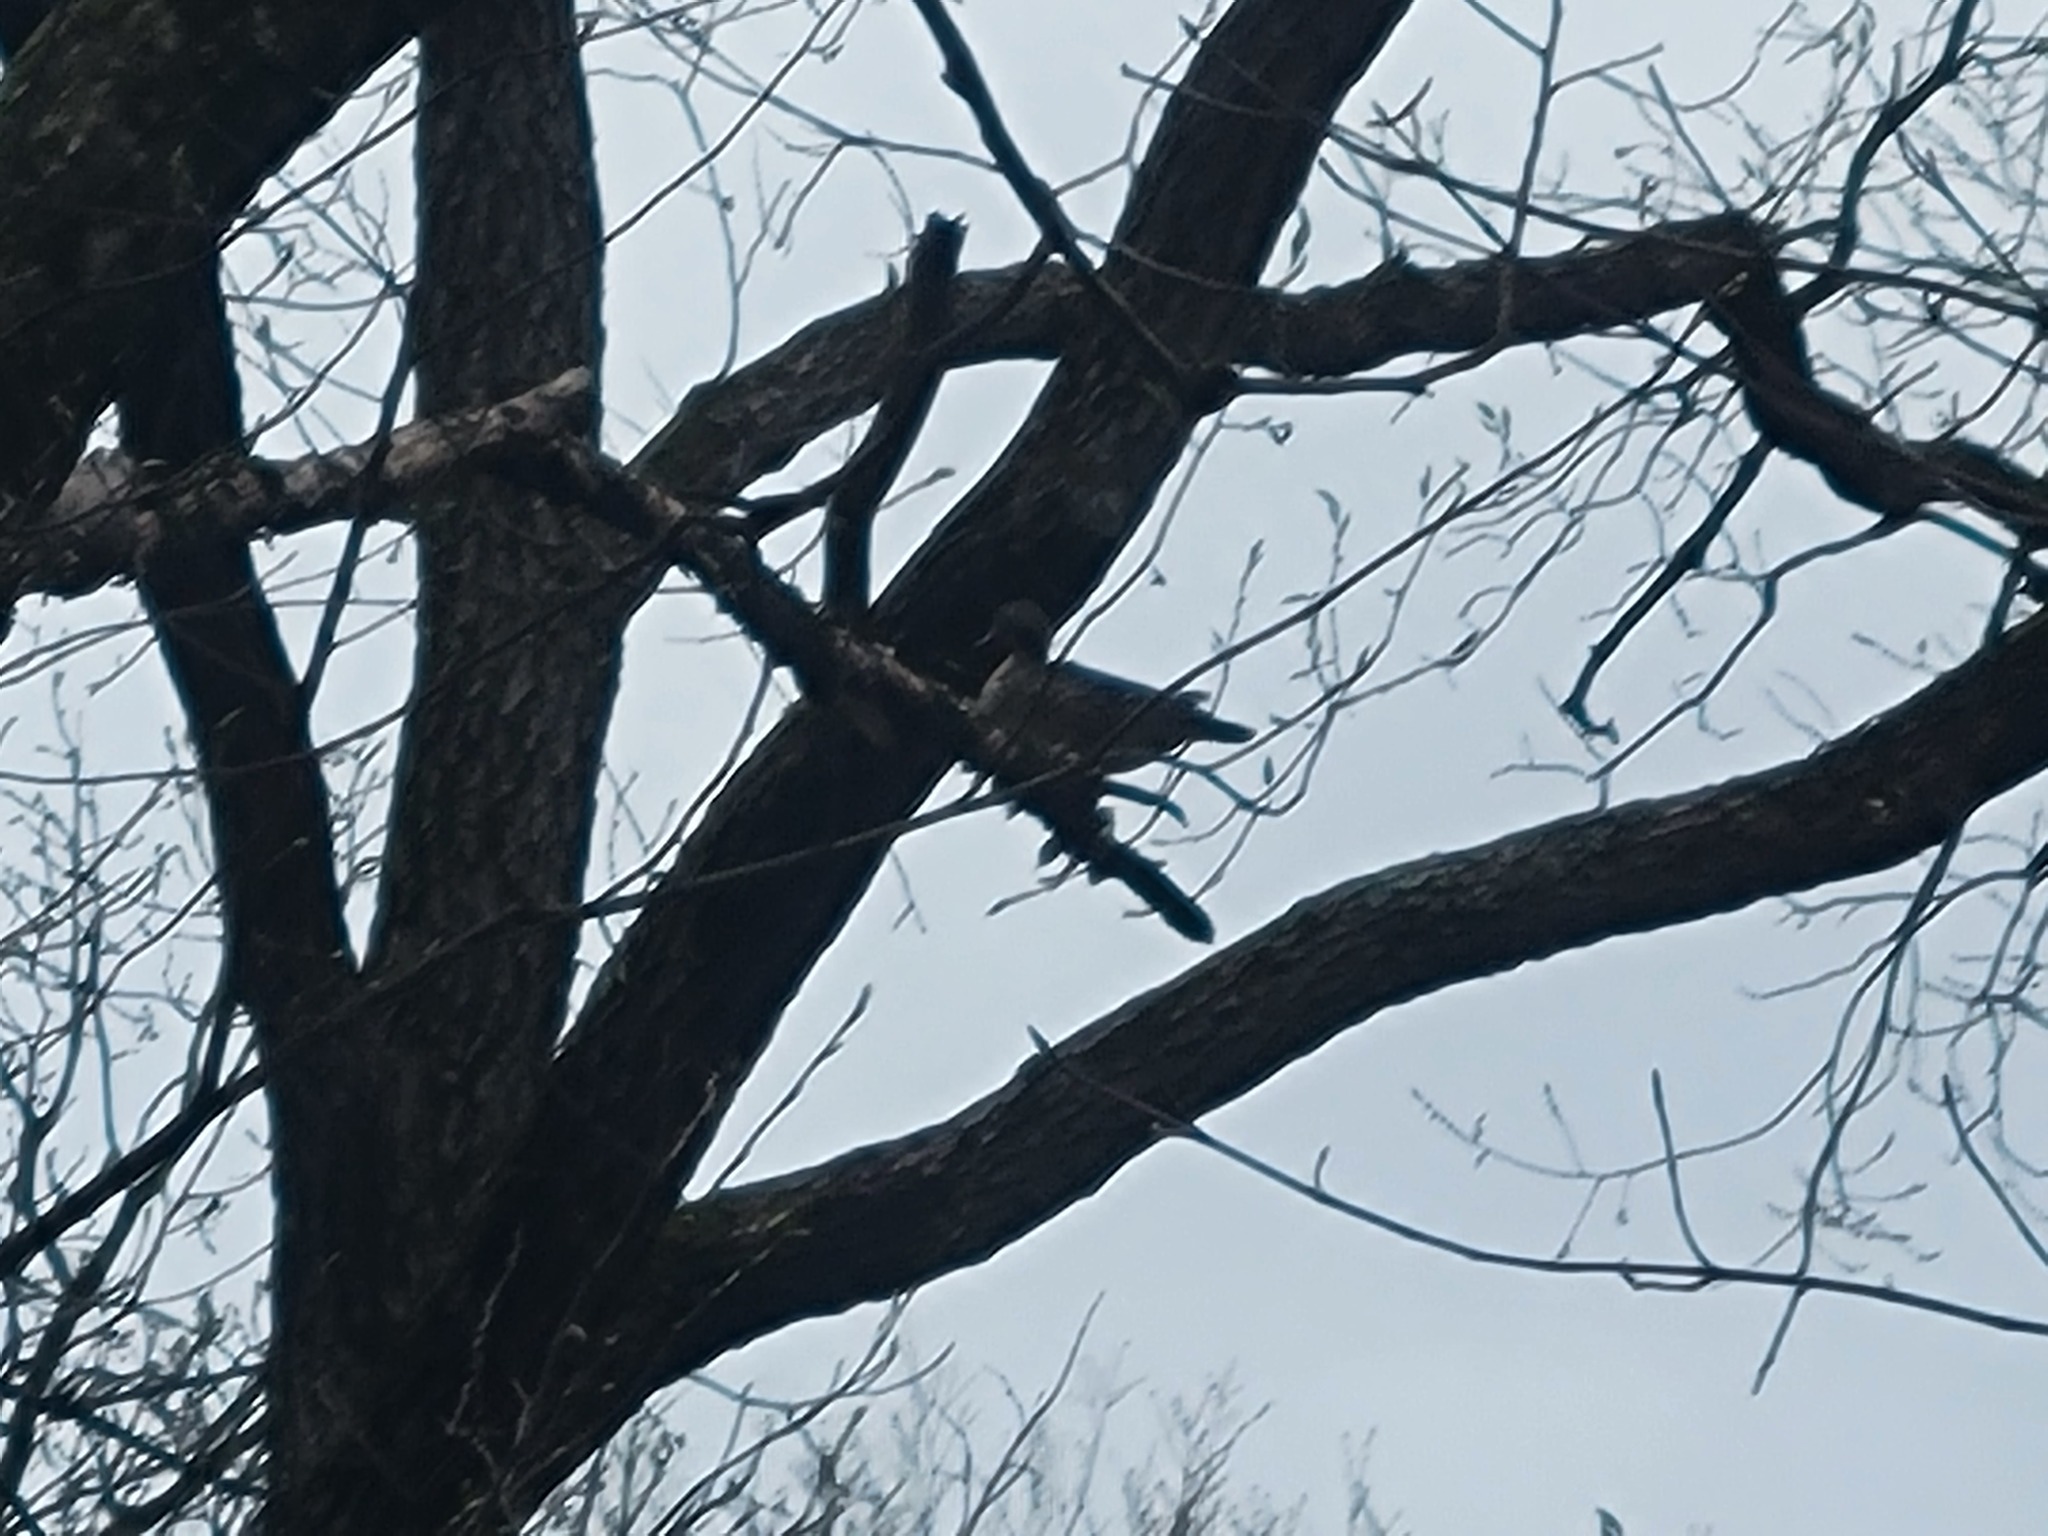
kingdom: Animalia
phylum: Chordata
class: Aves
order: Anseriformes
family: Anatidae
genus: Aix
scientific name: Aix sponsa
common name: Wood duck
